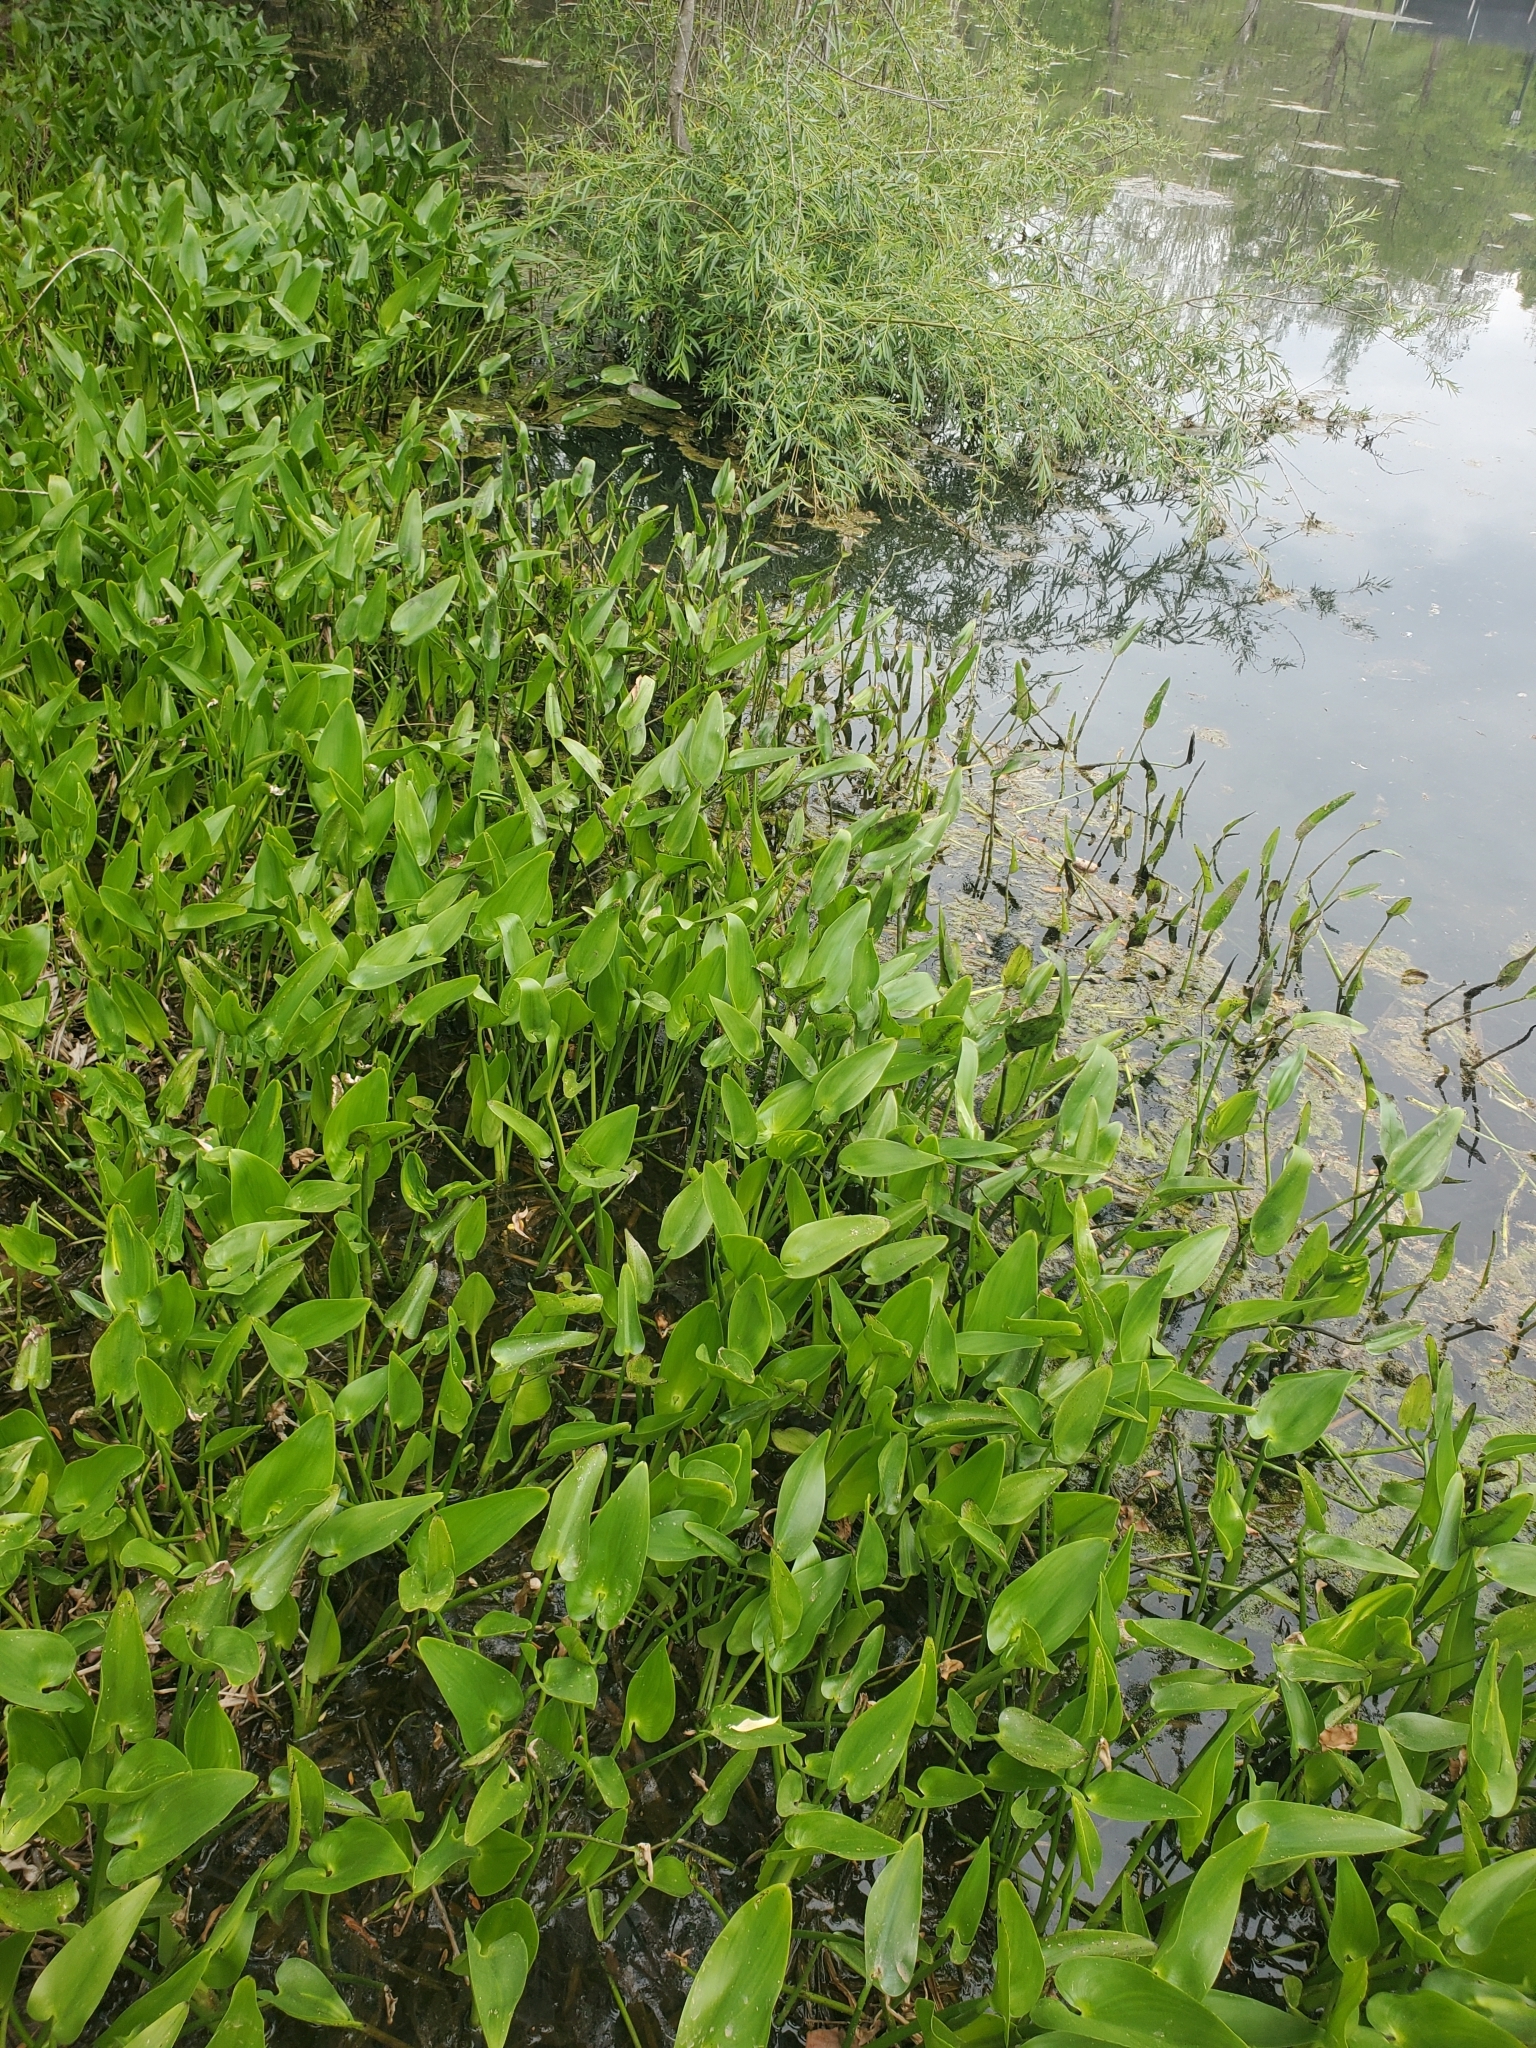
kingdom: Plantae
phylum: Tracheophyta
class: Liliopsida
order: Commelinales
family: Pontederiaceae
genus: Pontederia
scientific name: Pontederia cordata
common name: Pickerelweed
